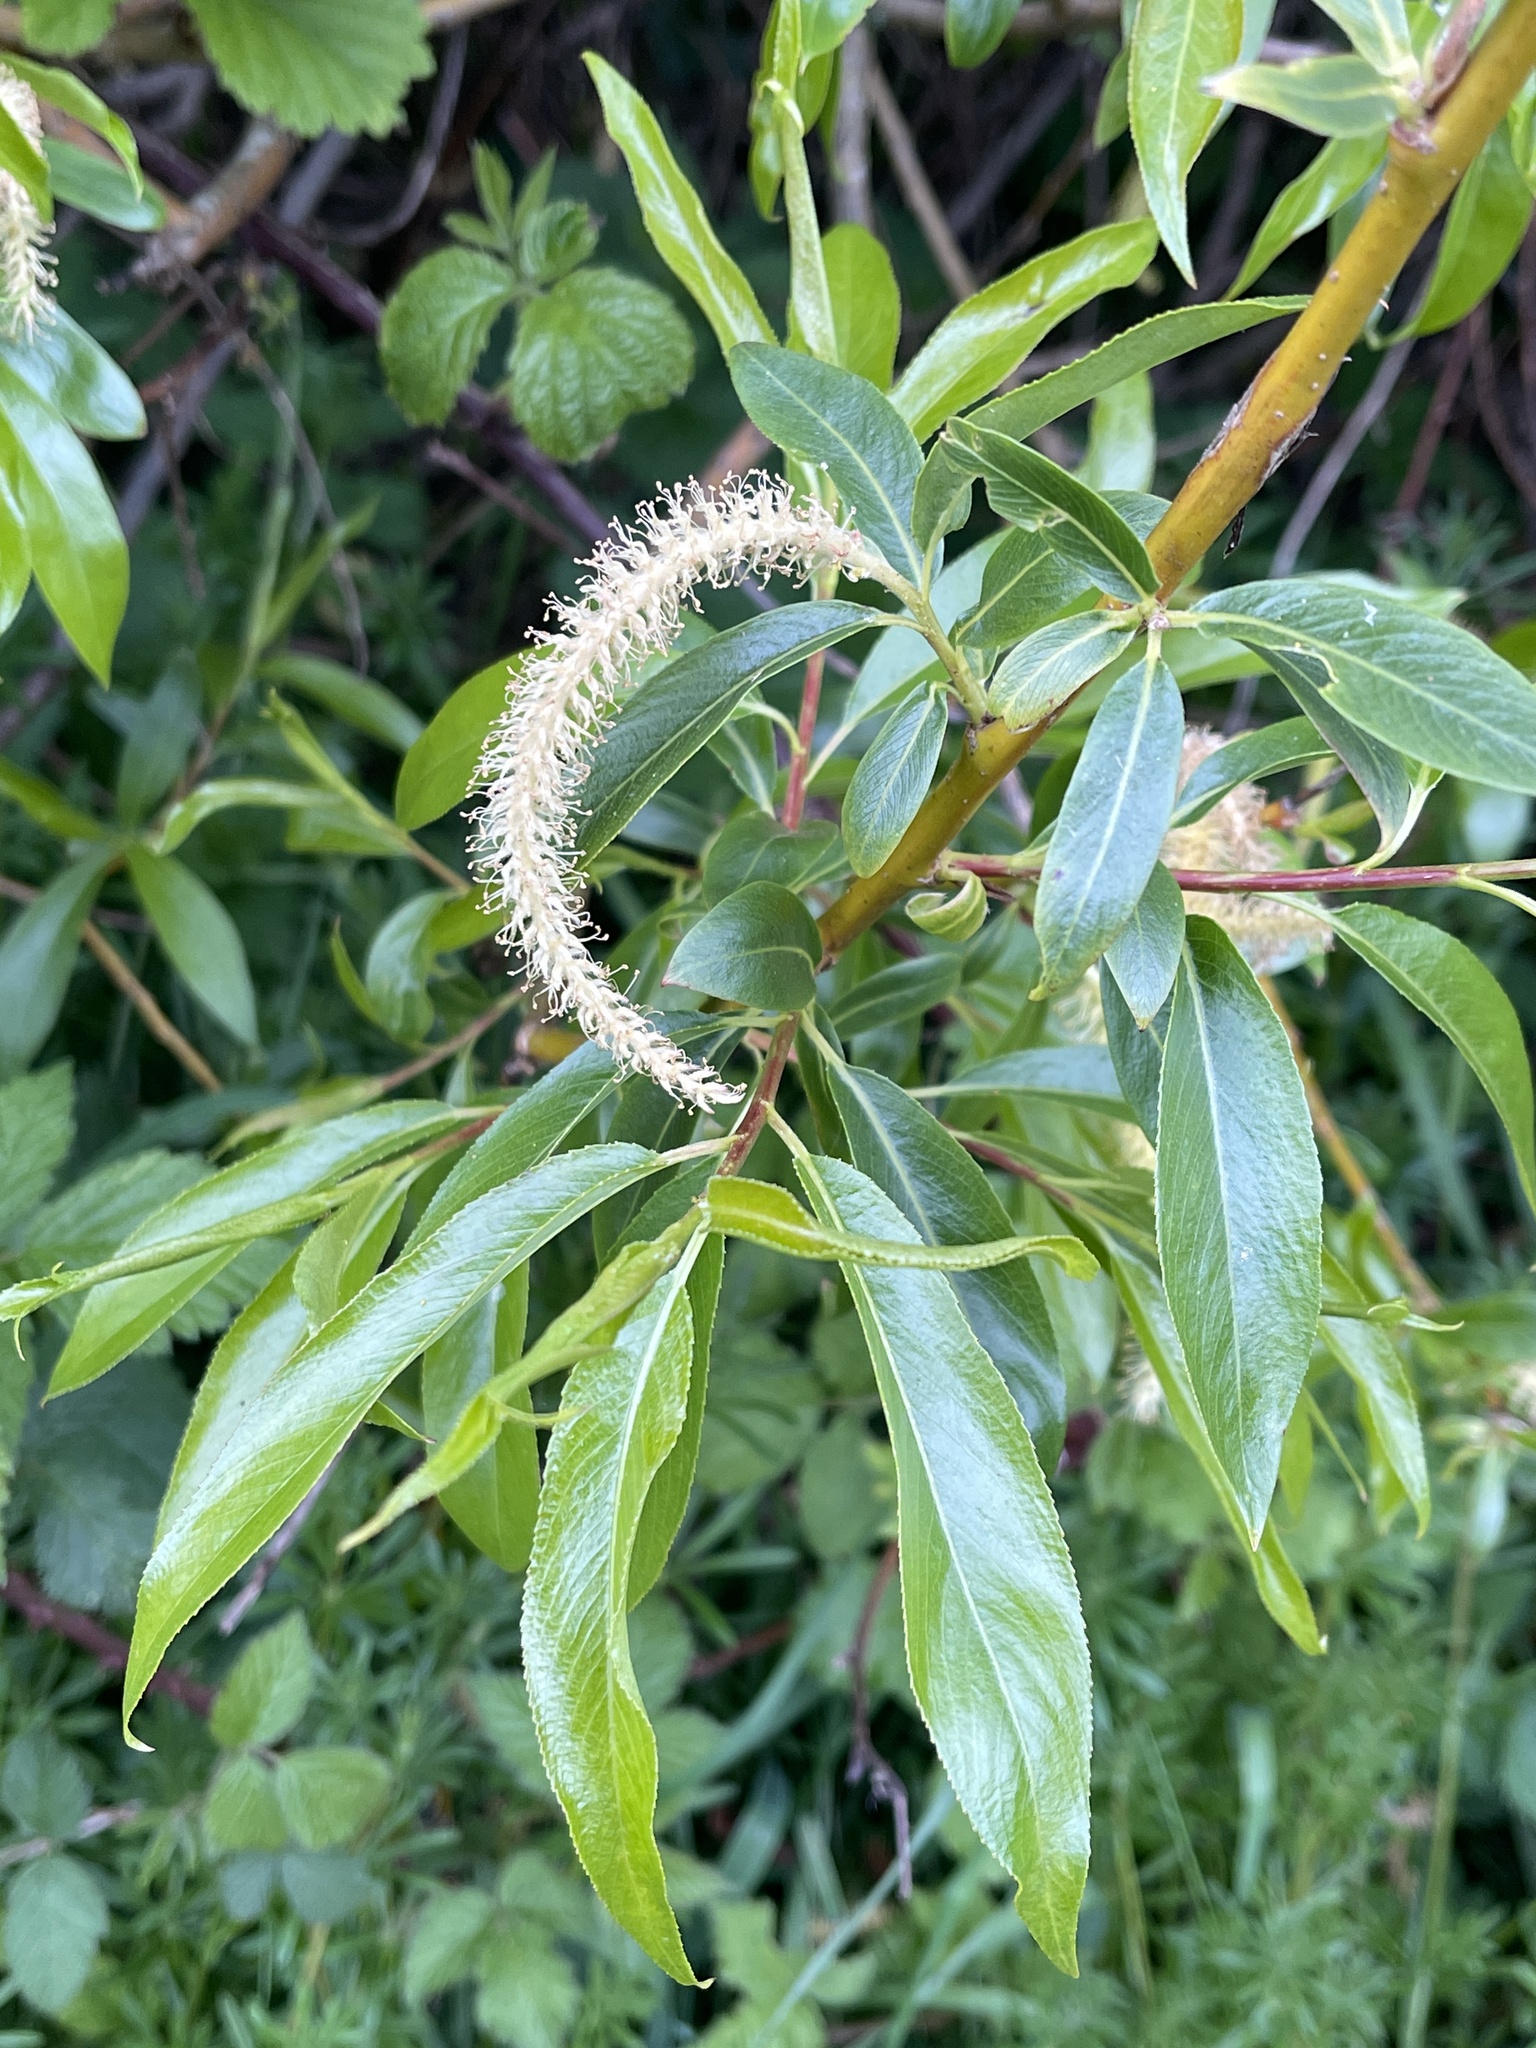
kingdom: Plantae
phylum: Tracheophyta
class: Magnoliopsida
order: Malpighiales
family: Salicaceae
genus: Salix
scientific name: Salix fragilis
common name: Crack willow
